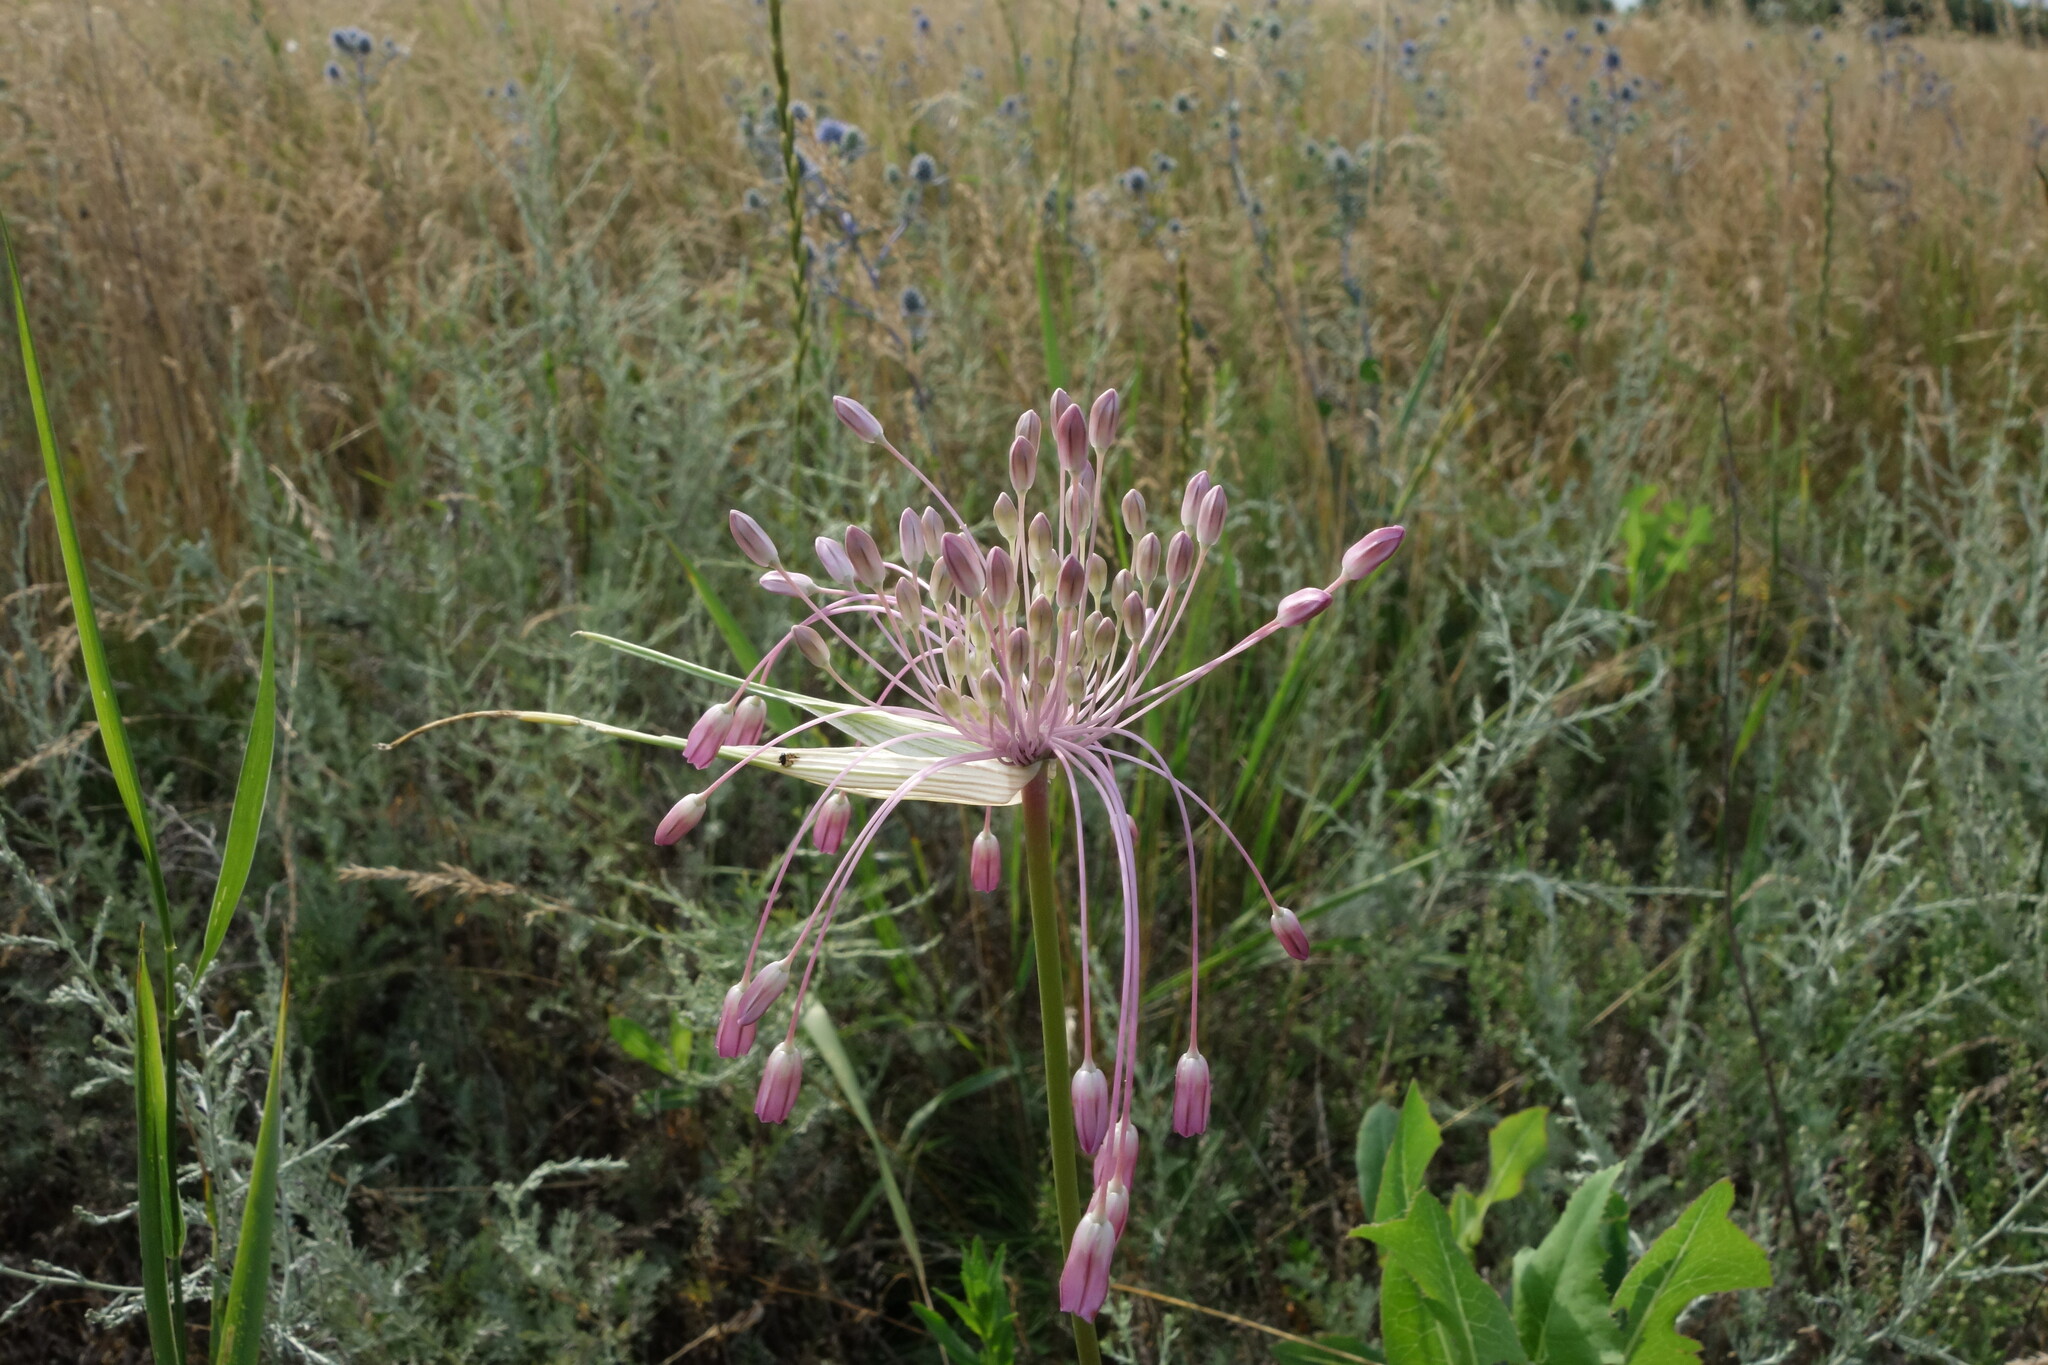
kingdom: Plantae
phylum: Tracheophyta
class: Liliopsida
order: Asparagales
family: Amaryllidaceae
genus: Allium
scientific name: Allium praescissum
